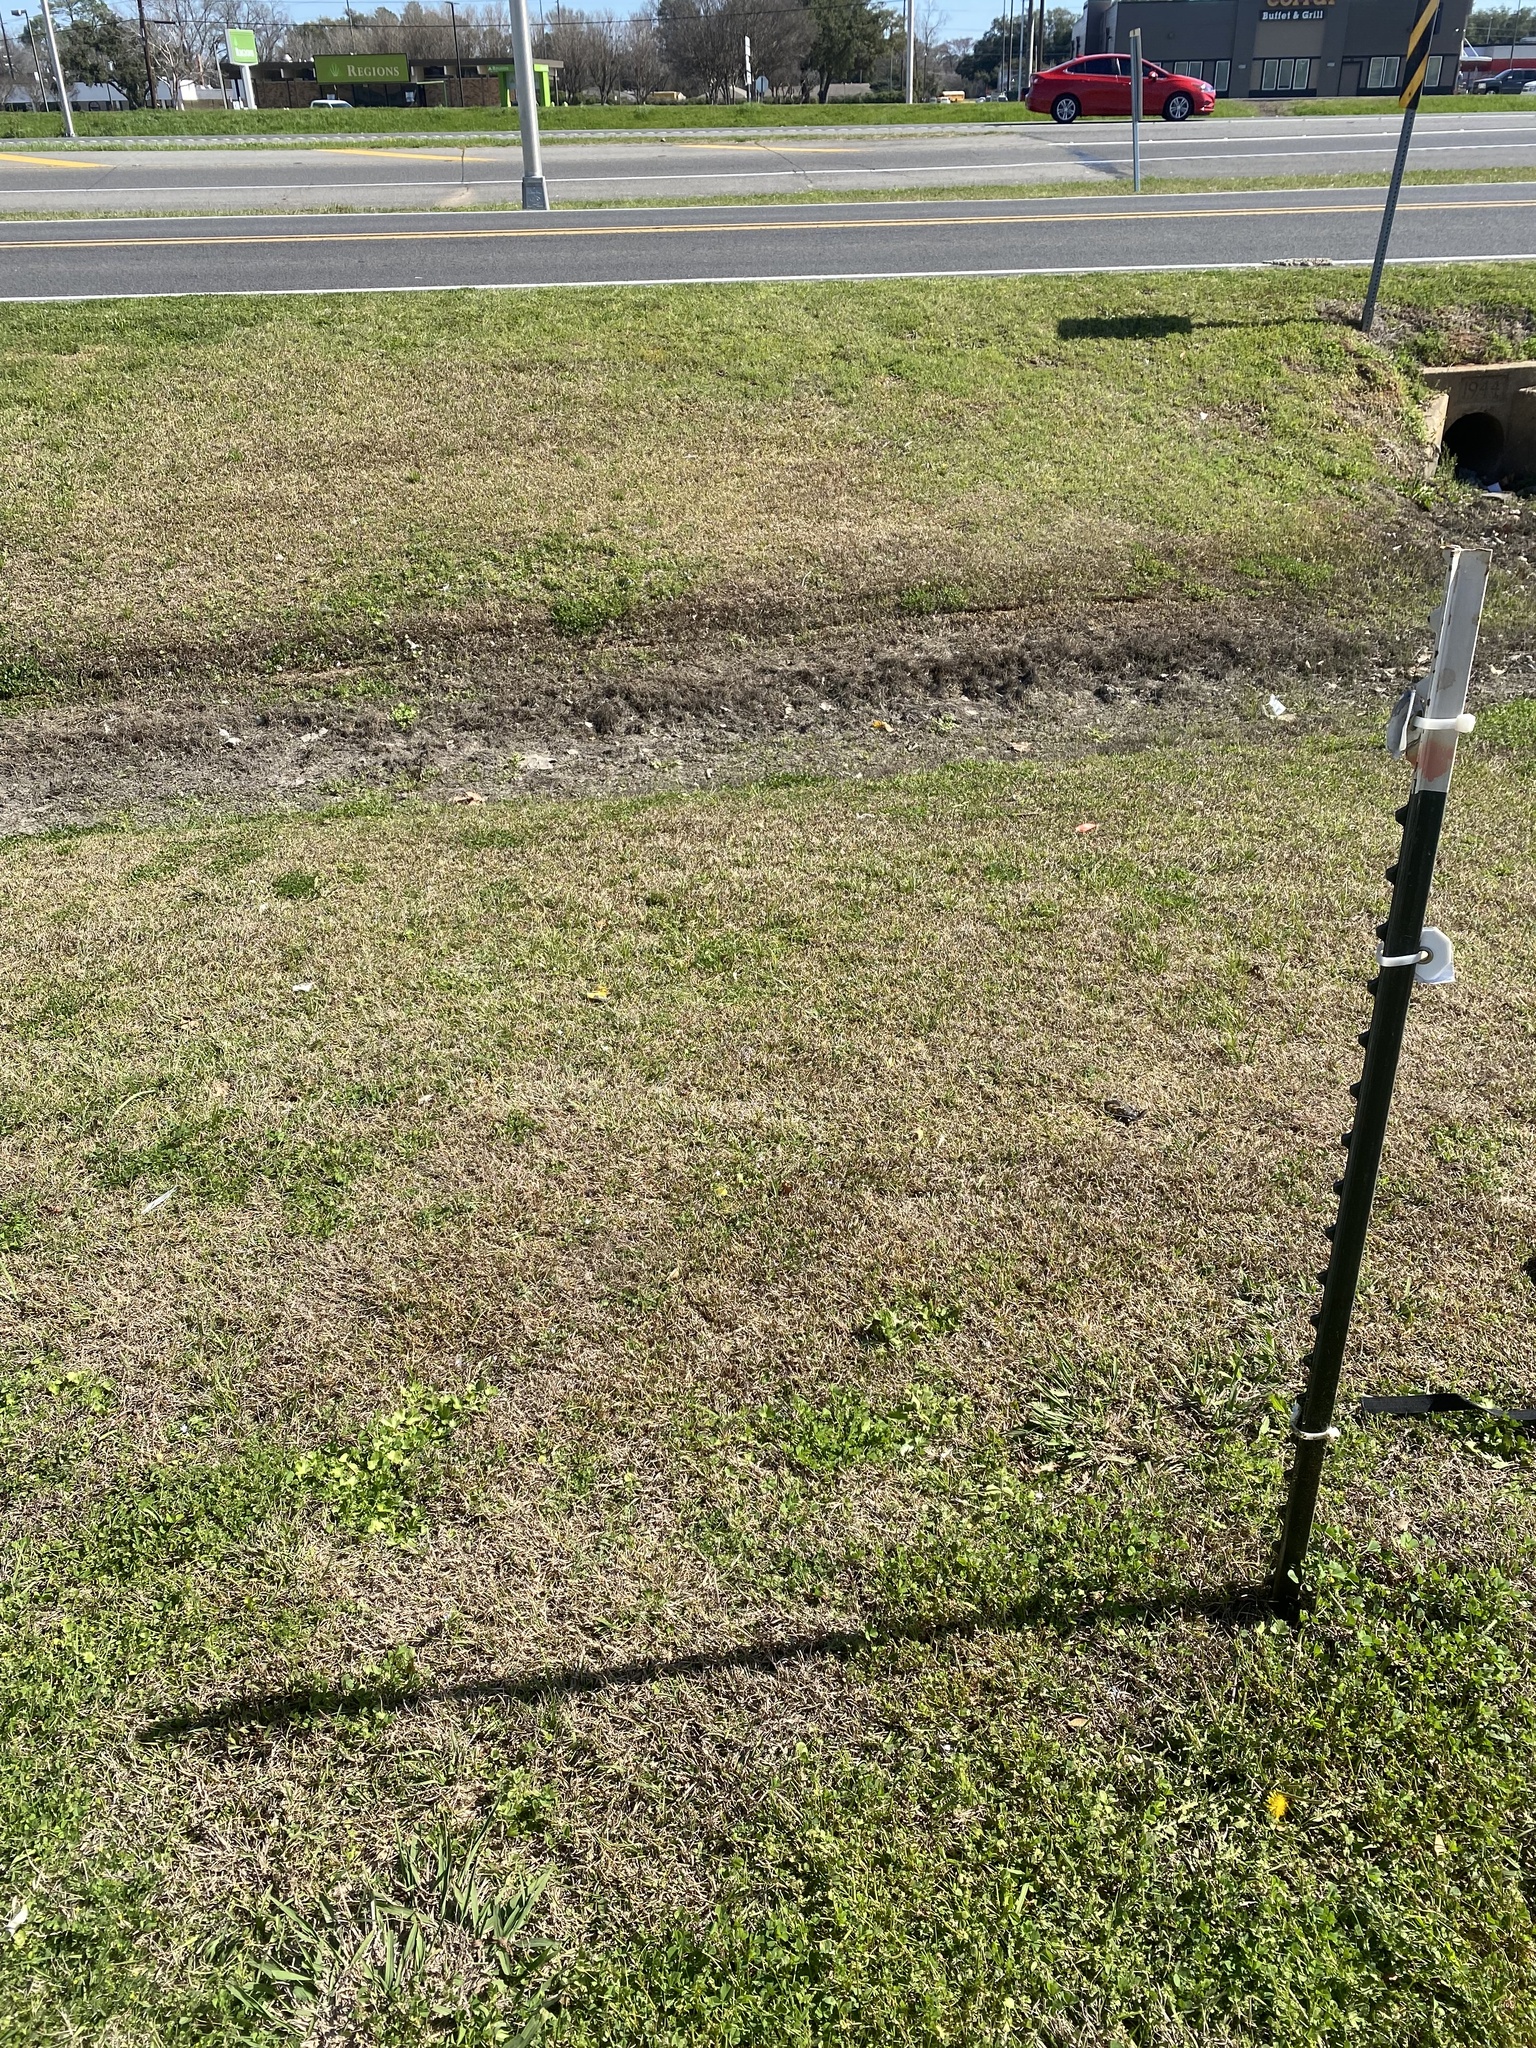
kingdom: Plantae
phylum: Tracheophyta
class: Magnoliopsida
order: Ranunculales
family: Ranunculaceae
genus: Anemone
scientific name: Anemone berlandieri
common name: Ten-petal anemone
